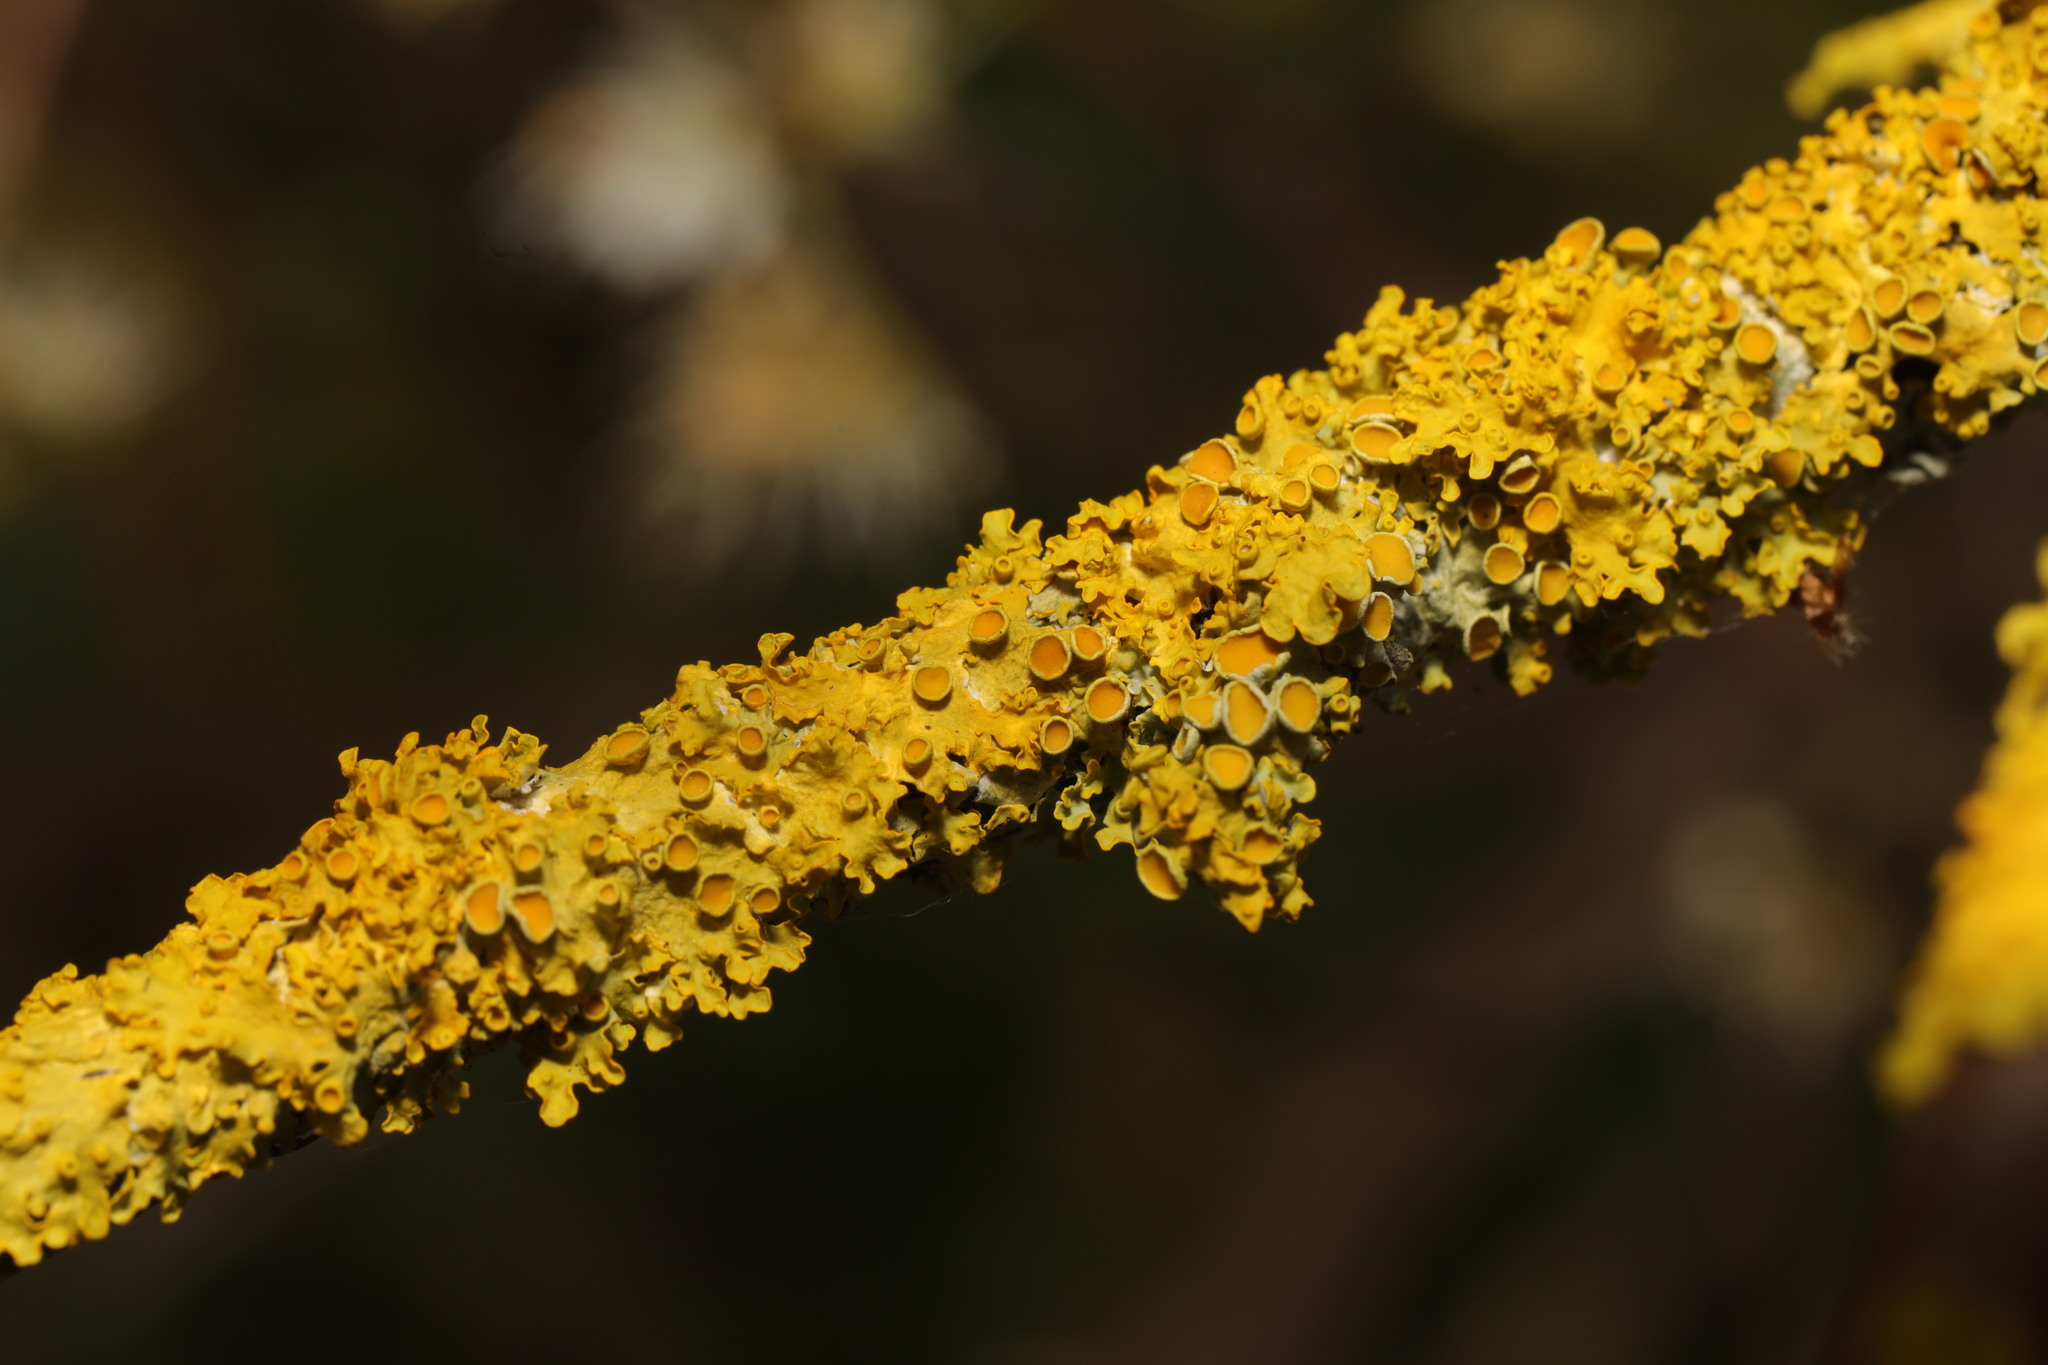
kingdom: Fungi
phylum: Ascomycota
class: Lecanoromycetes
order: Teloschistales
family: Teloschistaceae
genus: Xanthoria
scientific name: Xanthoria parietina
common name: Common orange lichen
